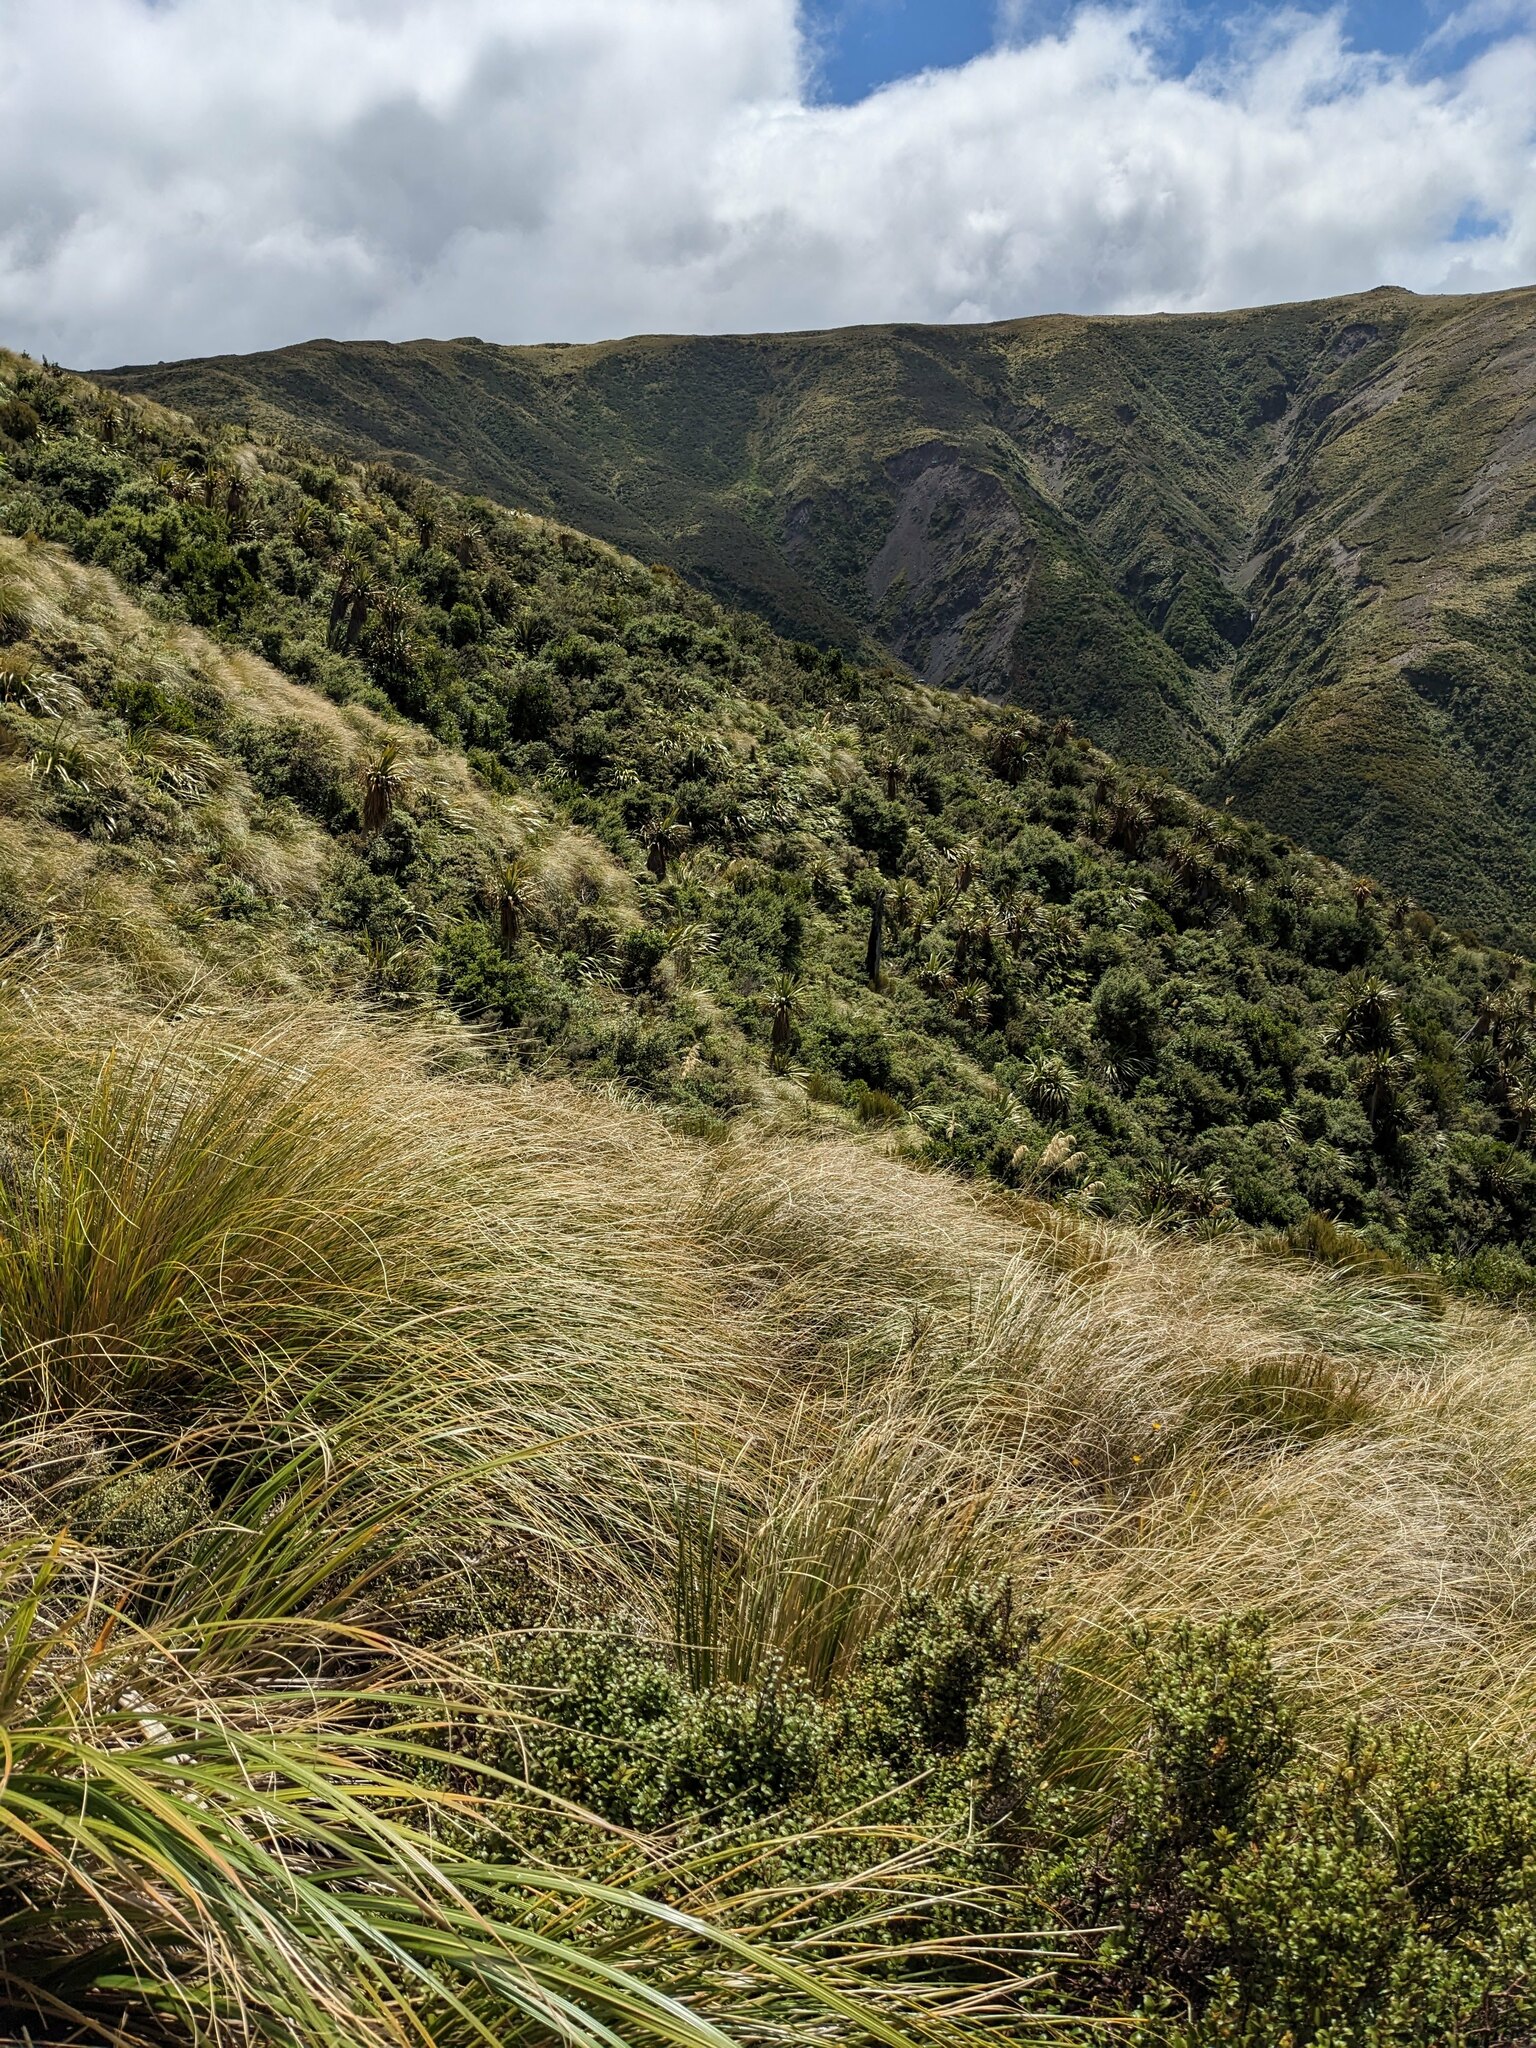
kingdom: Plantae
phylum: Tracheophyta
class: Liliopsida
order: Asparagales
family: Asparagaceae
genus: Cordyline
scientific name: Cordyline indivisa
